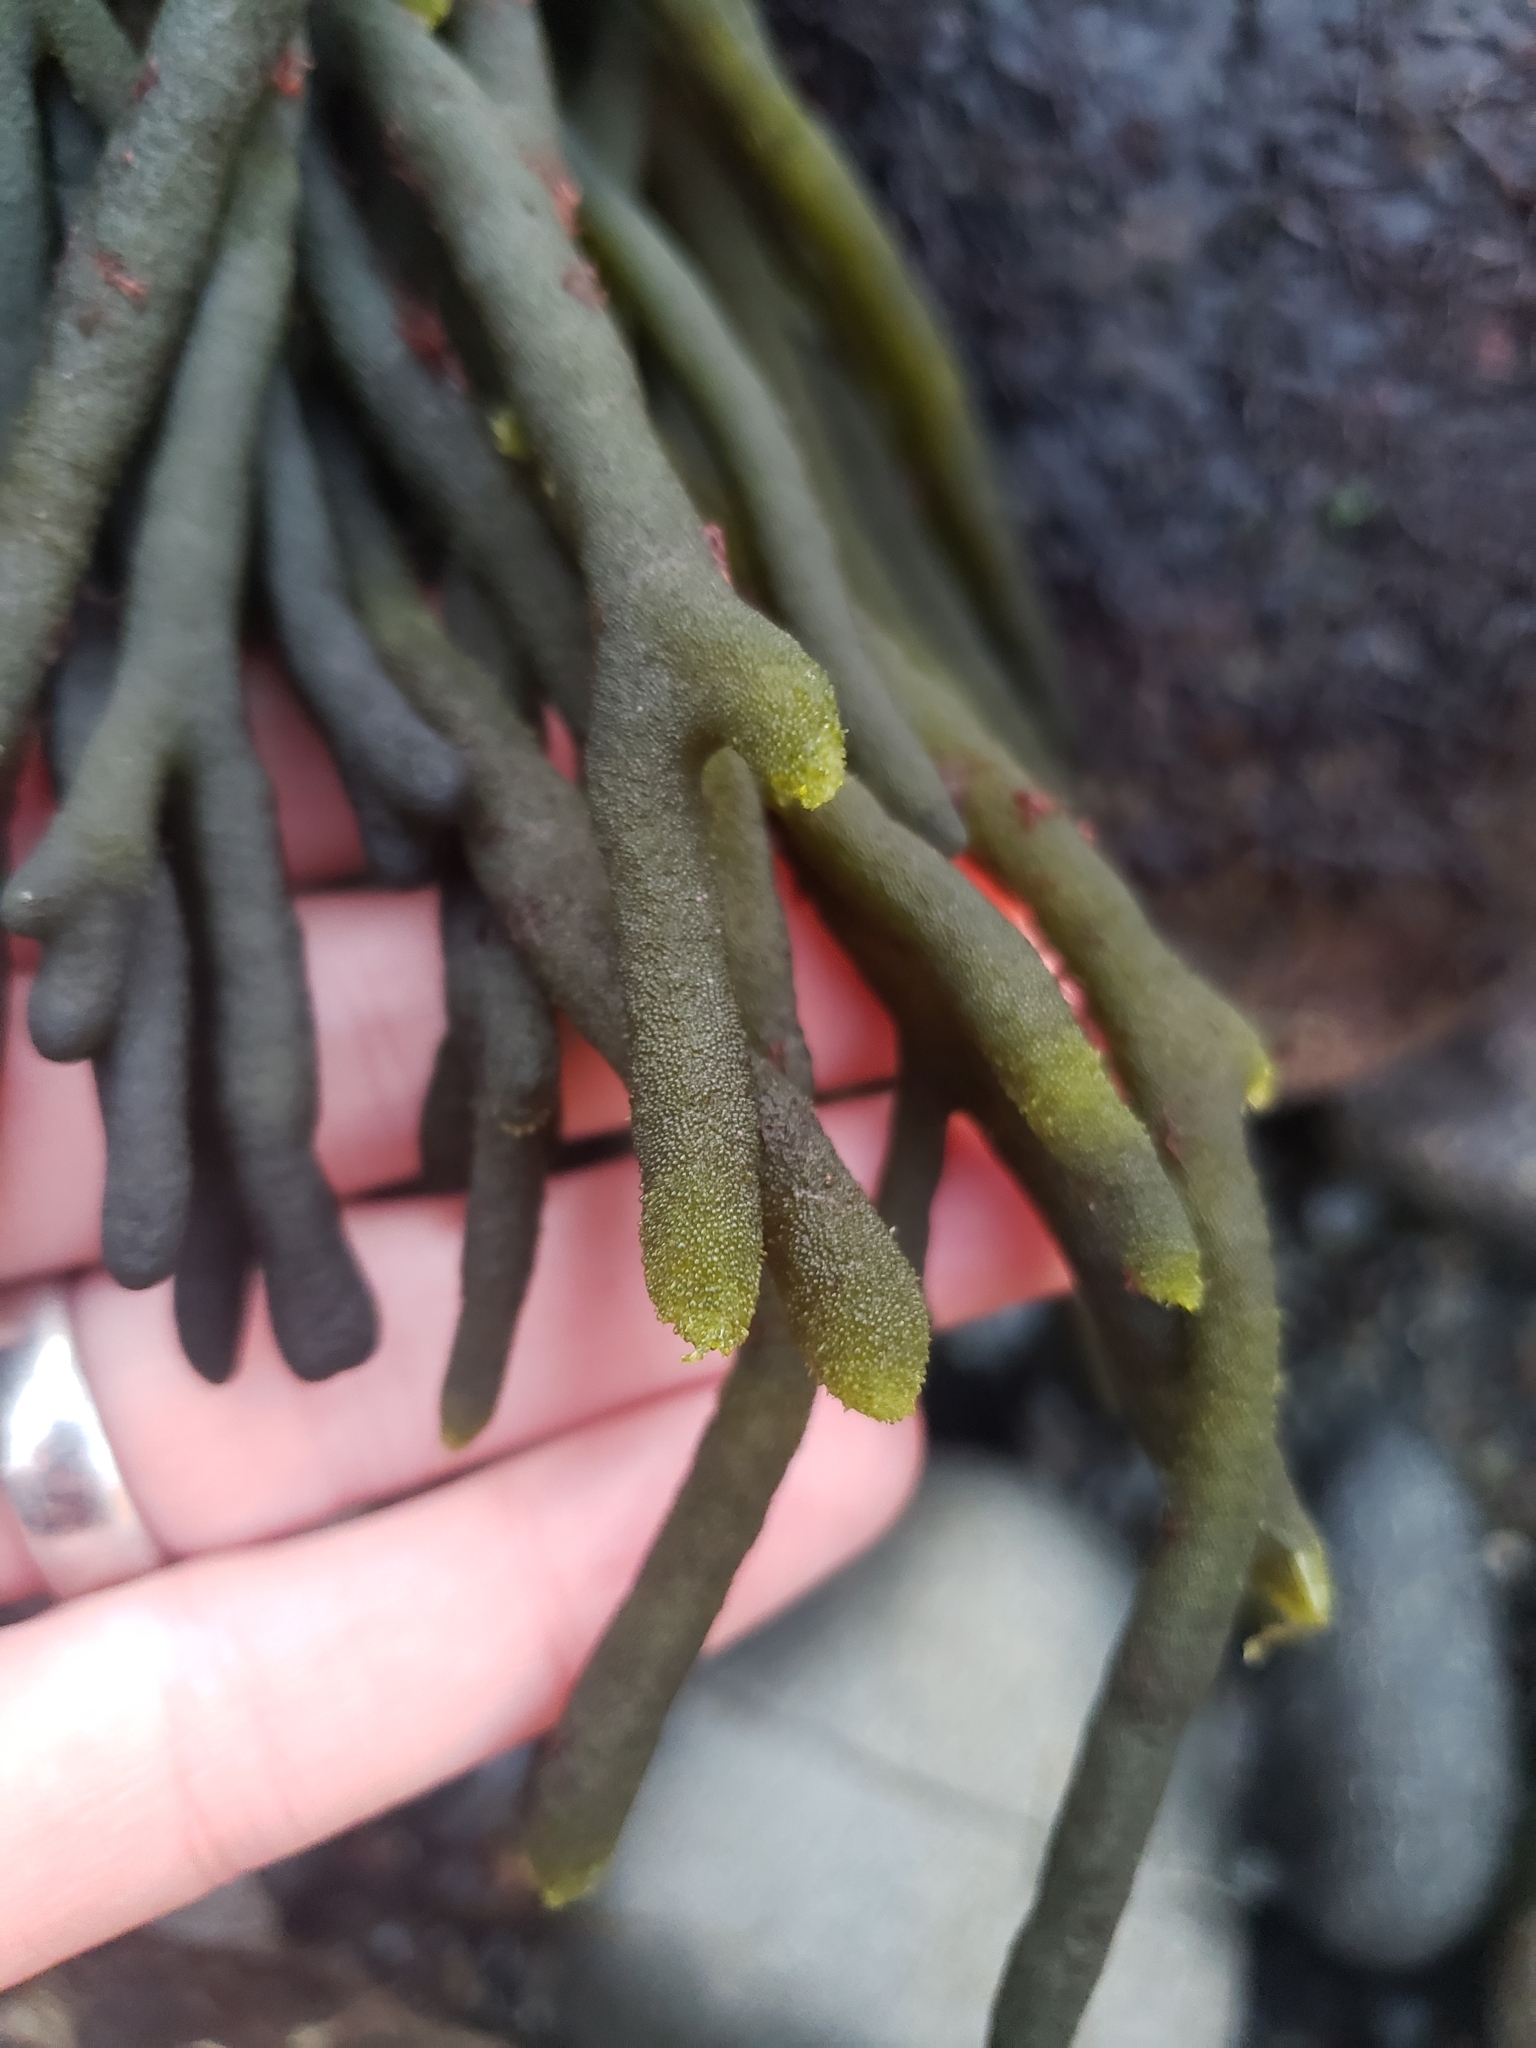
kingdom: Plantae
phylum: Chlorophyta
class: Ulvophyceae
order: Bryopsidales
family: Codiaceae
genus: Codium
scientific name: Codium fragile
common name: Dead man's fingers
